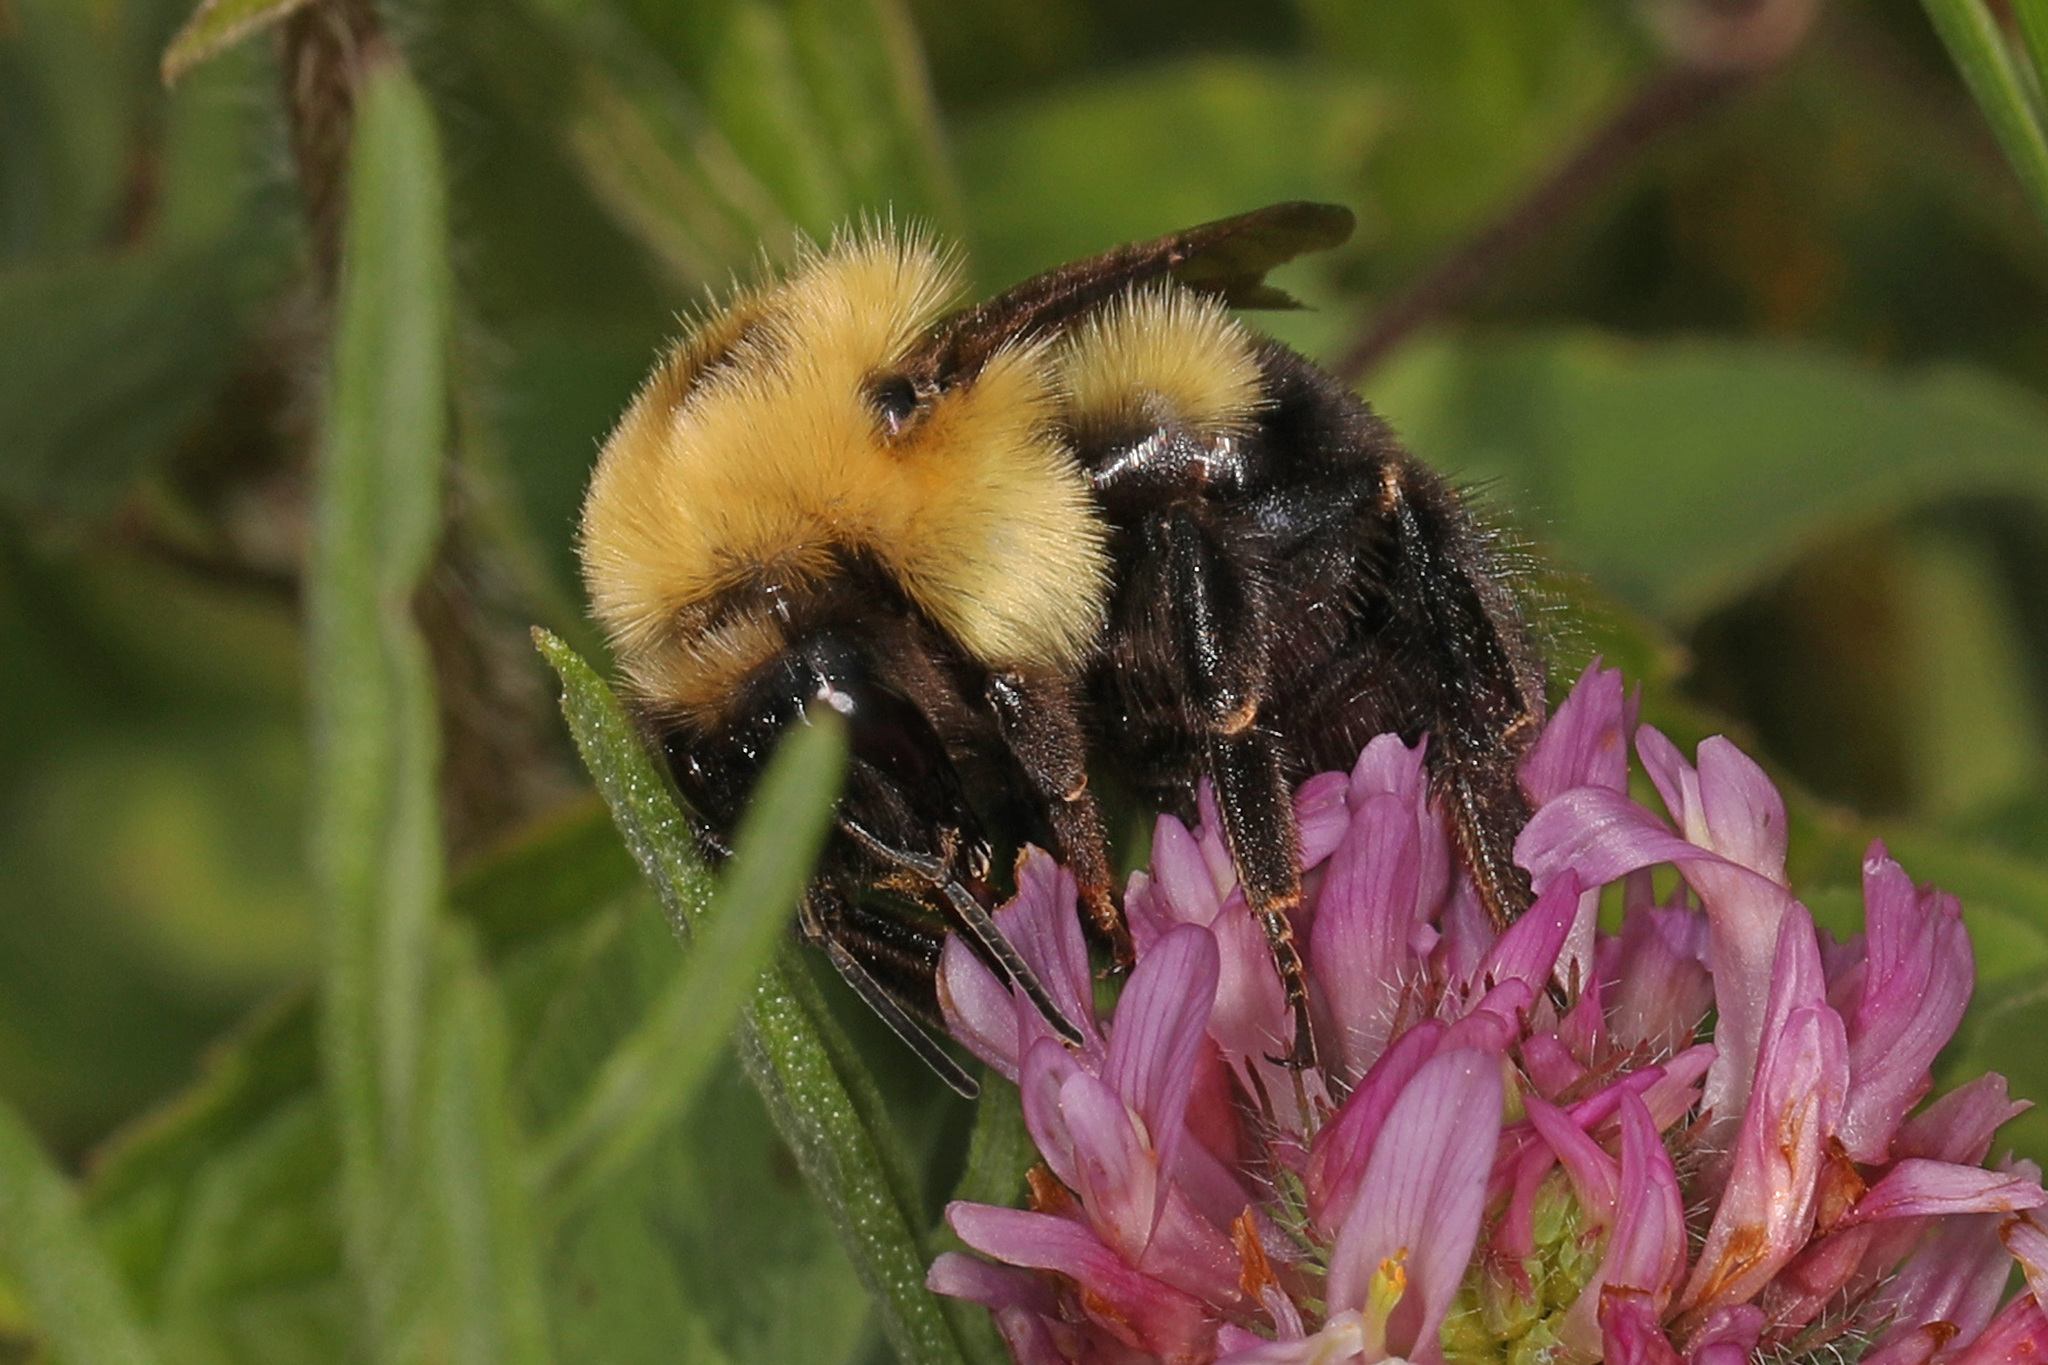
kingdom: Animalia
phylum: Arthropoda
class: Insecta
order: Hymenoptera
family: Apidae
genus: Bombus
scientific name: Bombus bimaculatus
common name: Two-spotted bumble bee
